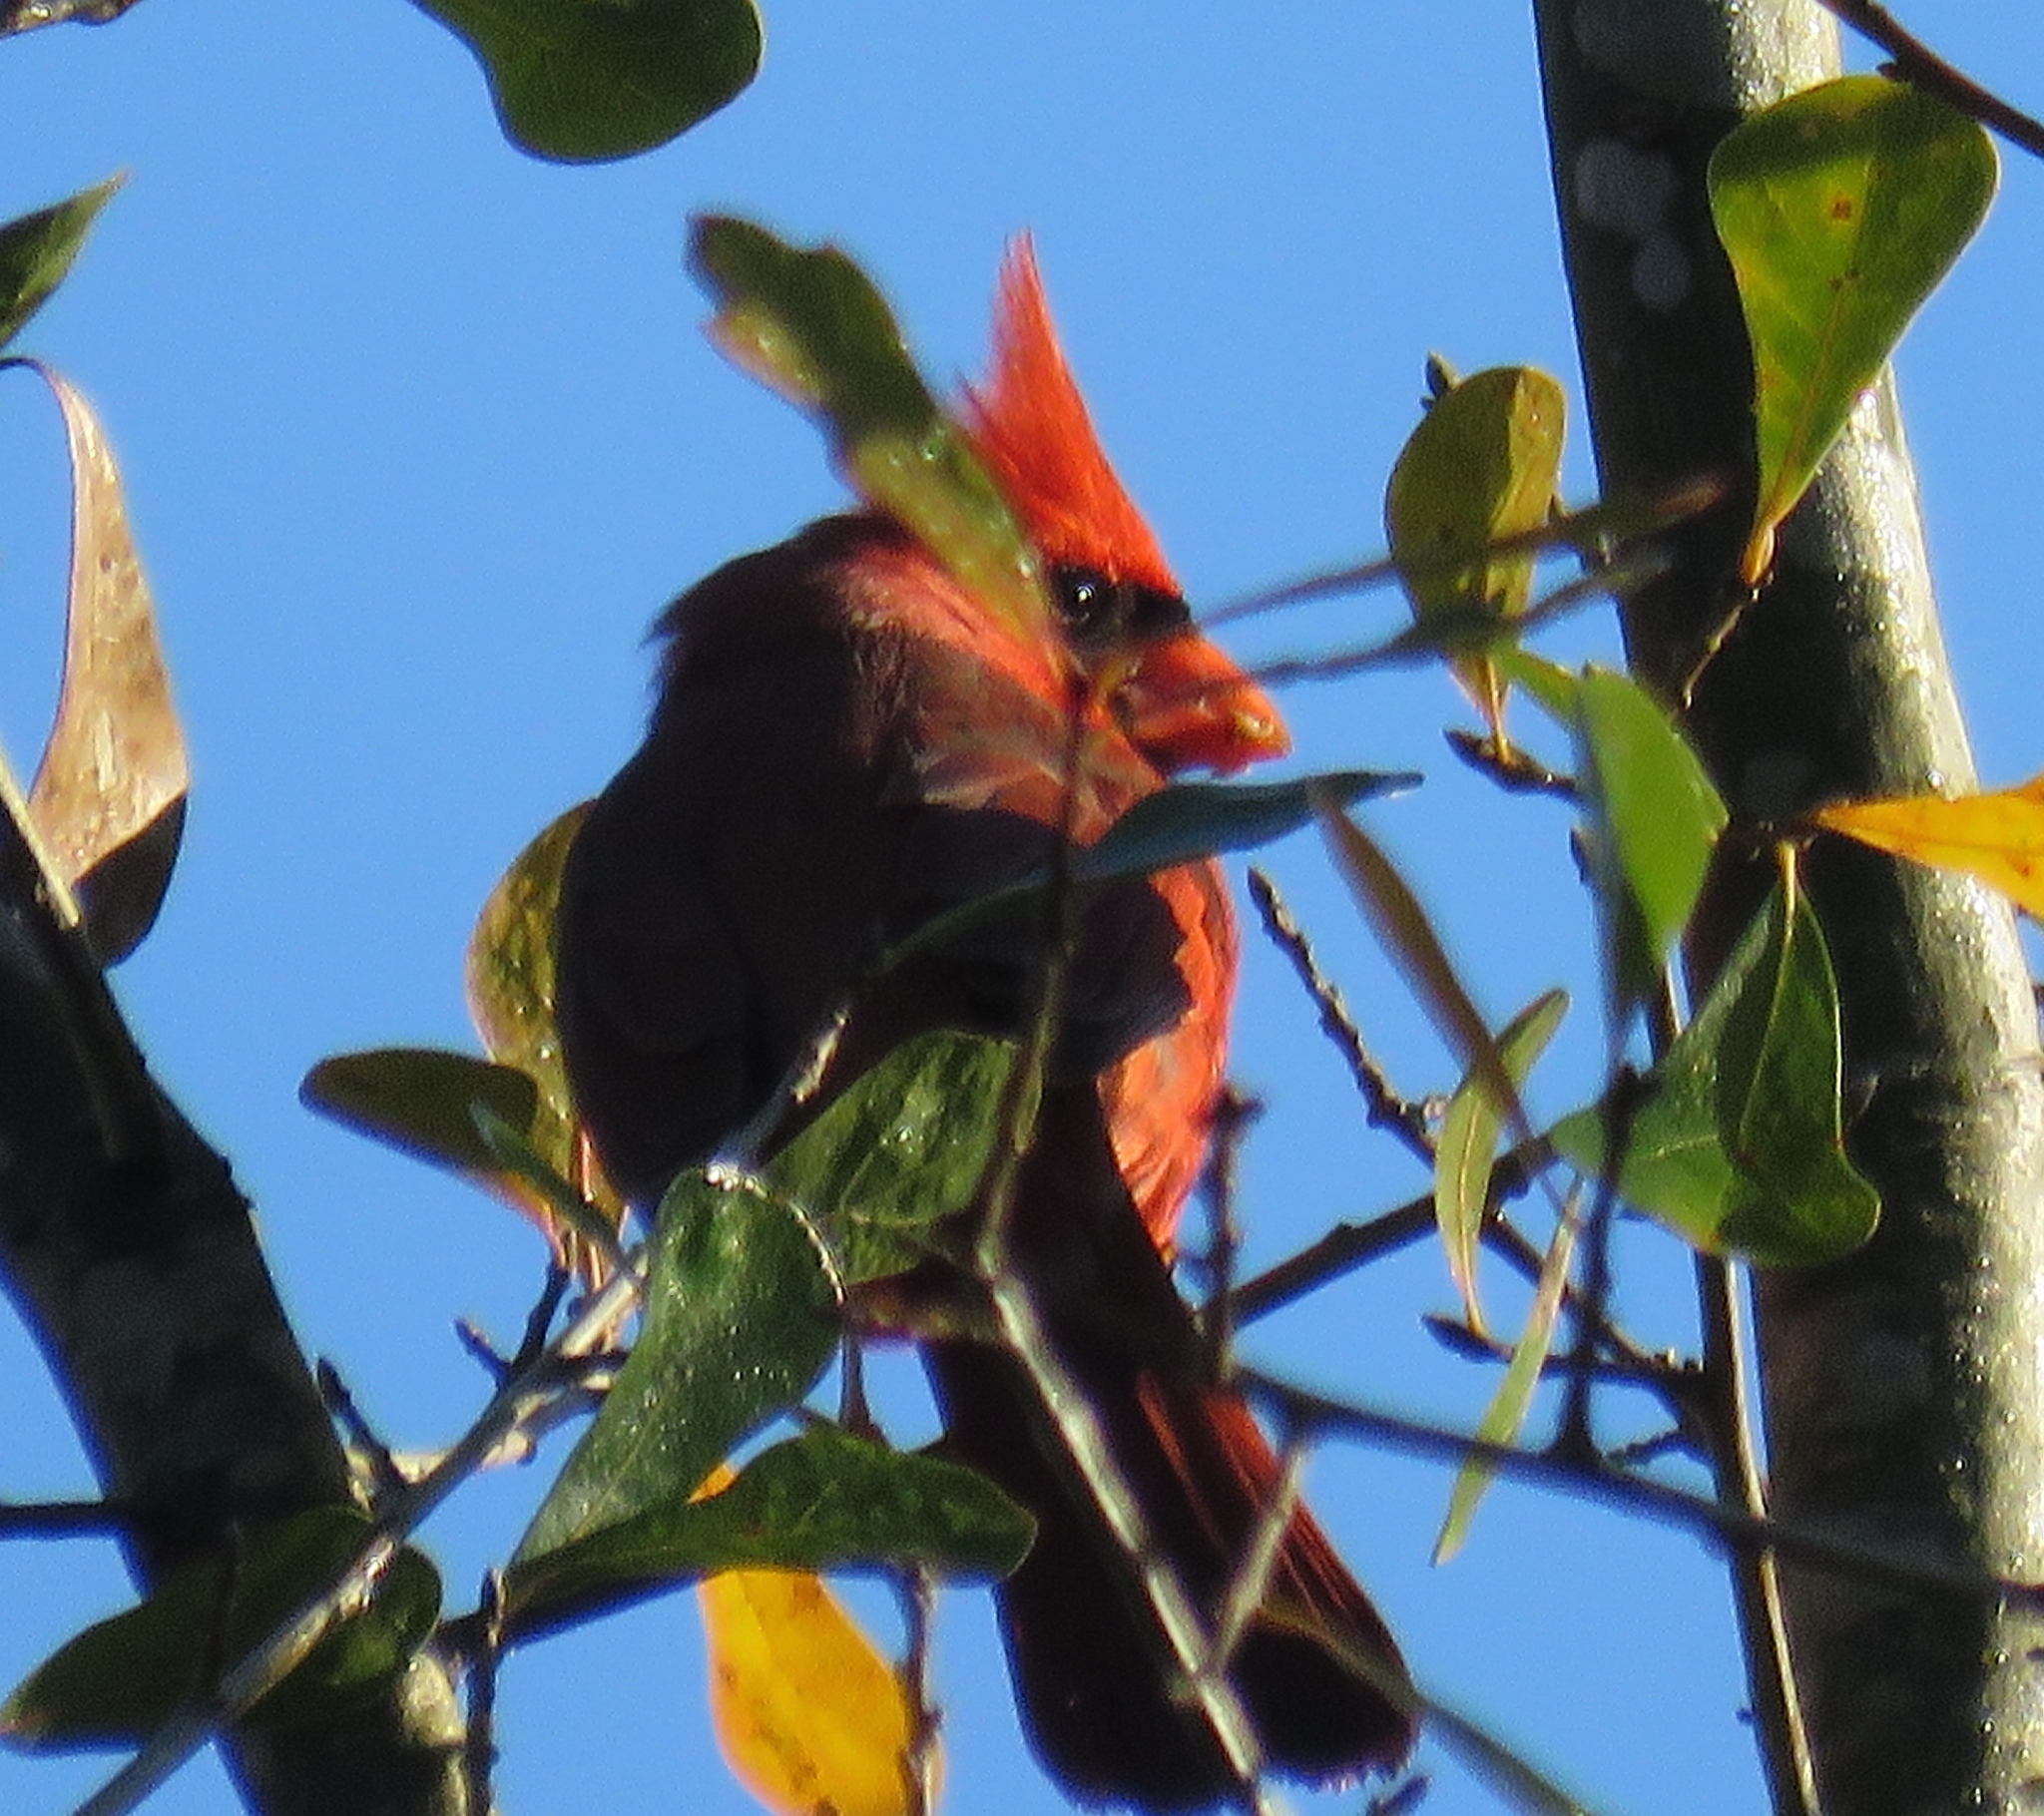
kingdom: Animalia
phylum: Chordata
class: Aves
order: Passeriformes
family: Cardinalidae
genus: Cardinalis
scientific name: Cardinalis cardinalis
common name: Northern cardinal
